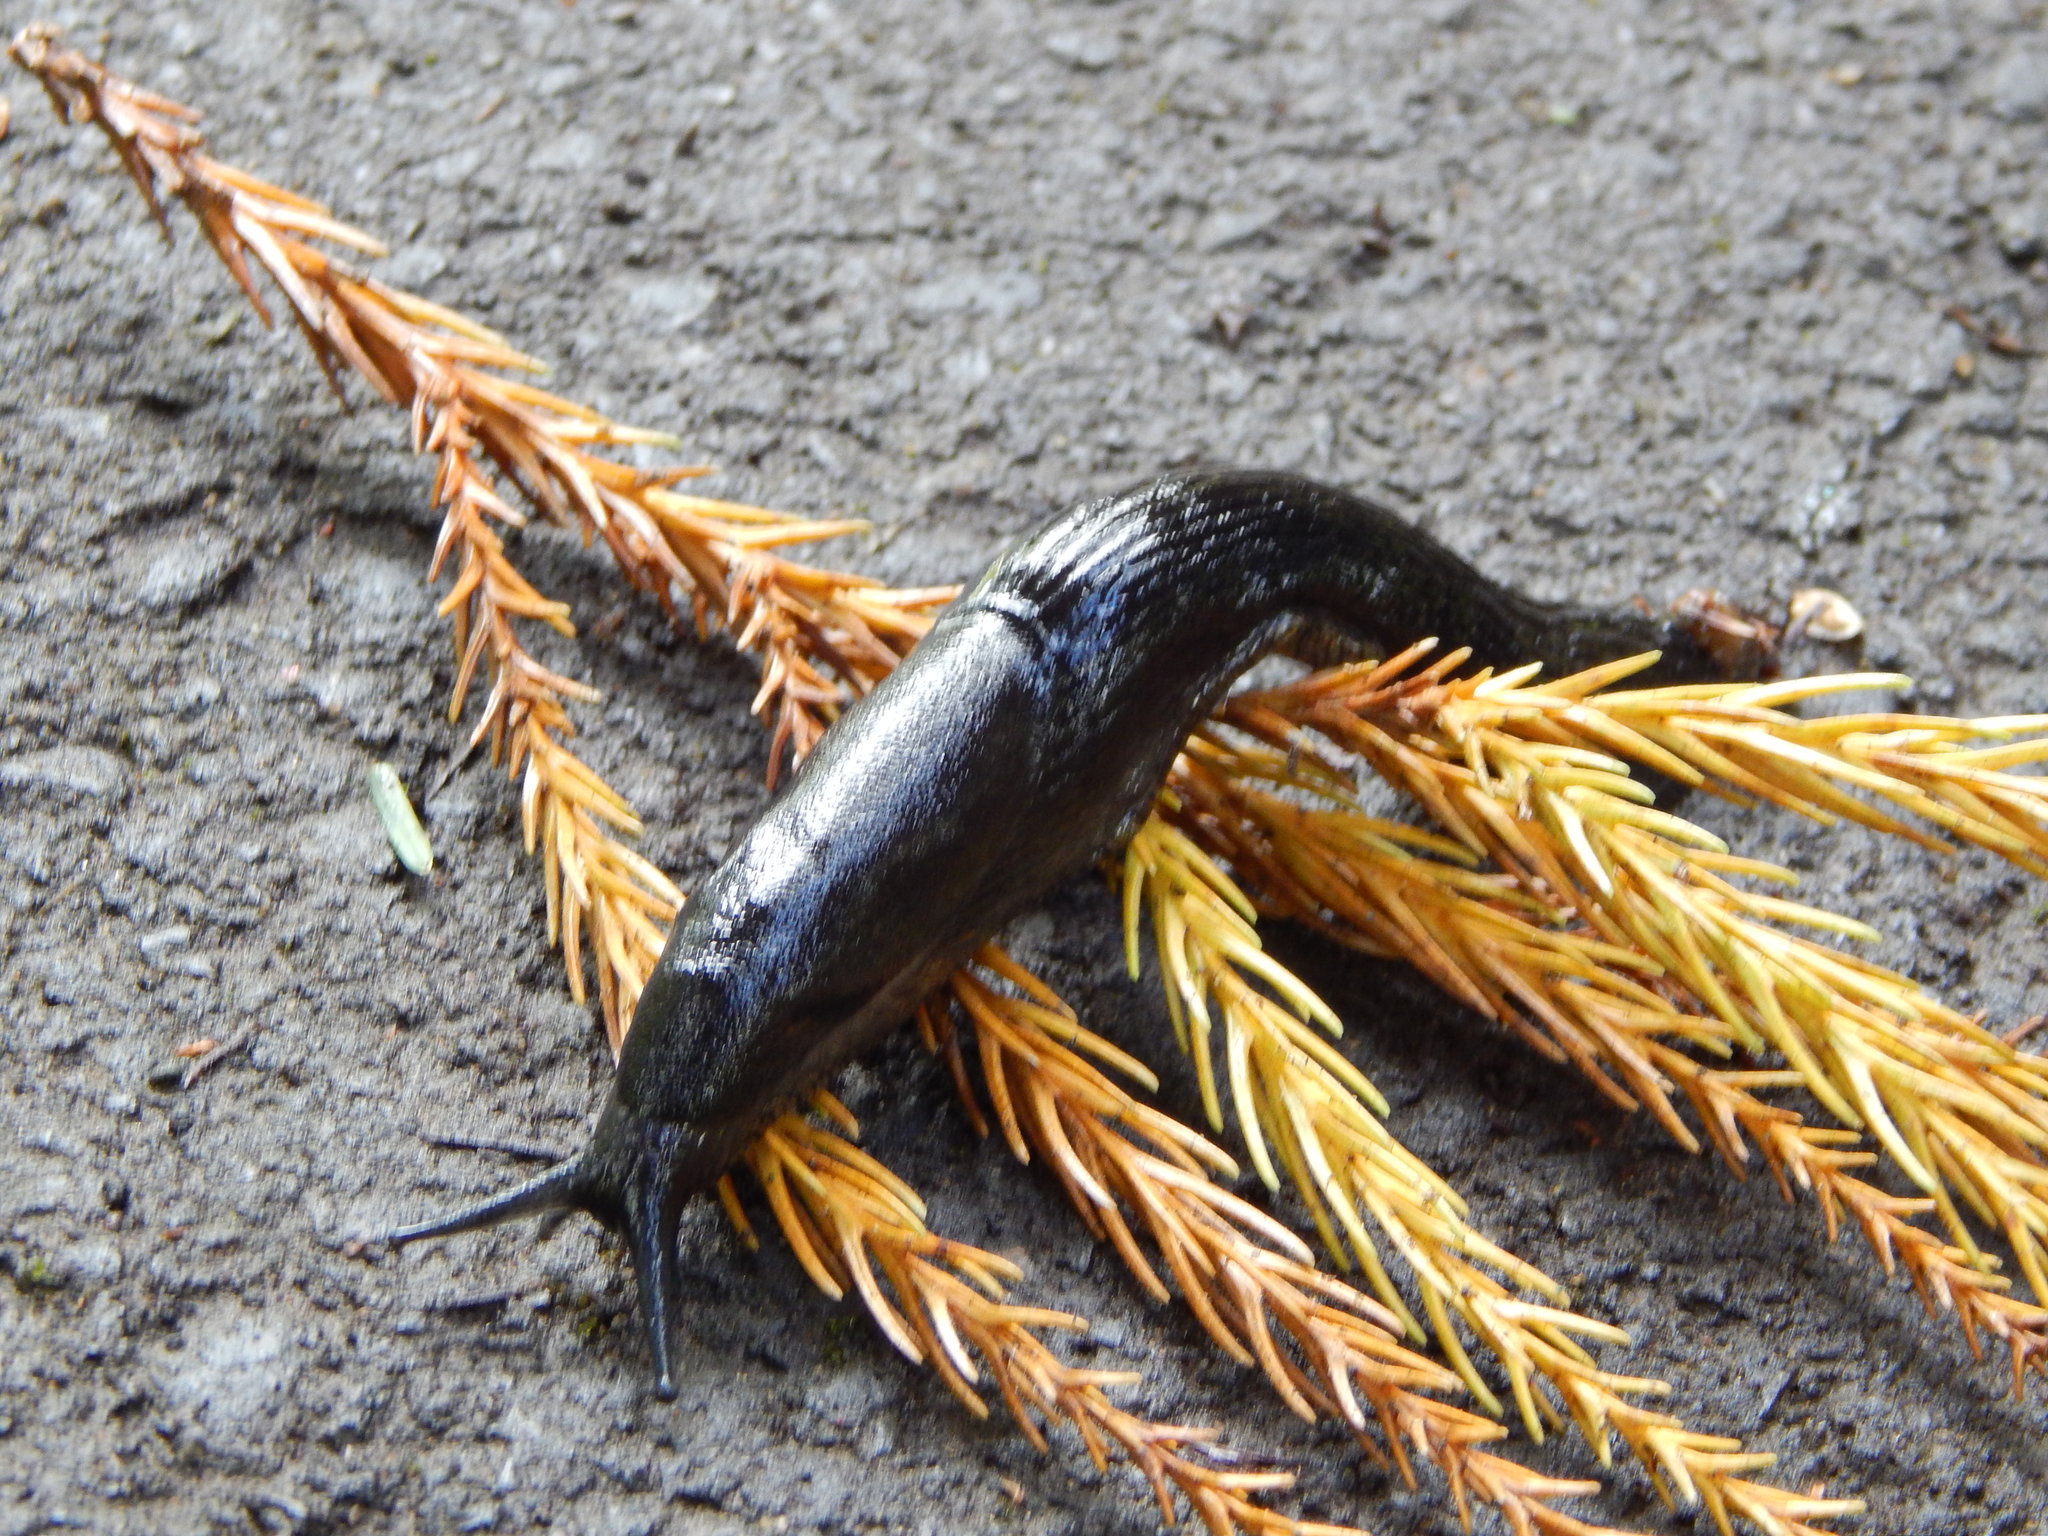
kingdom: Animalia
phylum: Mollusca
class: Gastropoda
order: Stylommatophora
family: Arionidae
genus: Arion
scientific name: Arion ater
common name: Black arion
